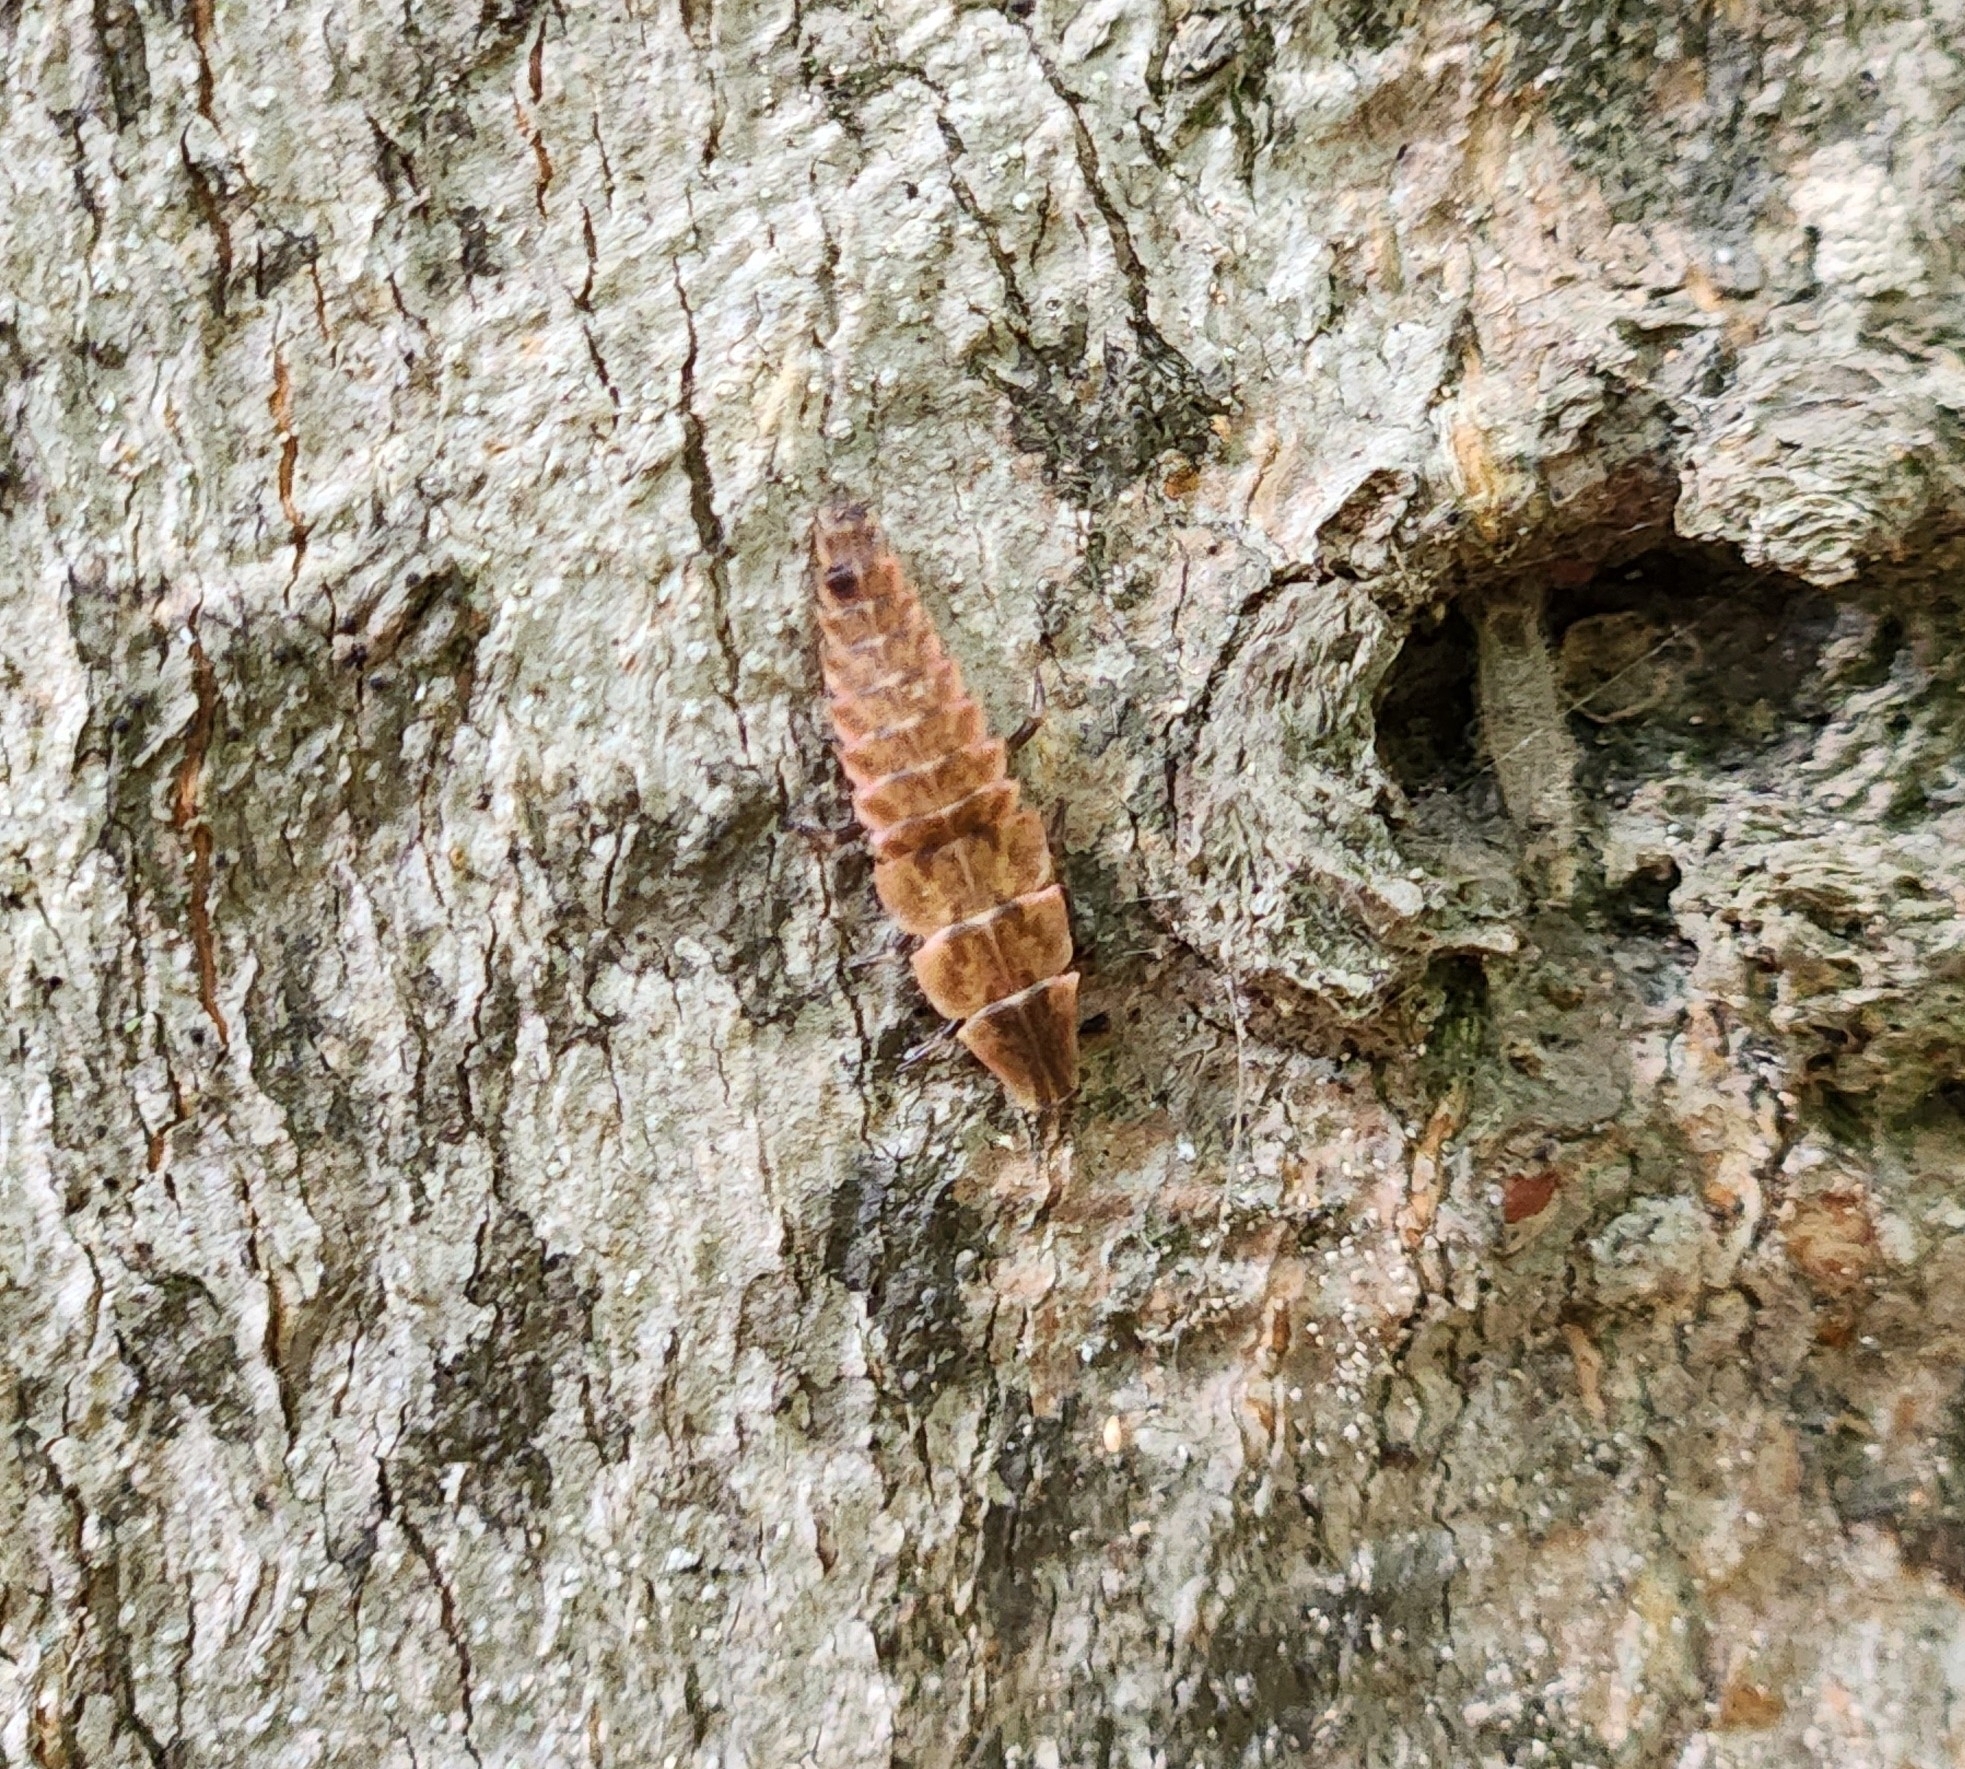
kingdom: Animalia
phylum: Arthropoda
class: Insecta
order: Coleoptera
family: Lampyridae
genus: Pyractomena
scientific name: Pyractomena borealis
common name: Northern firefly
